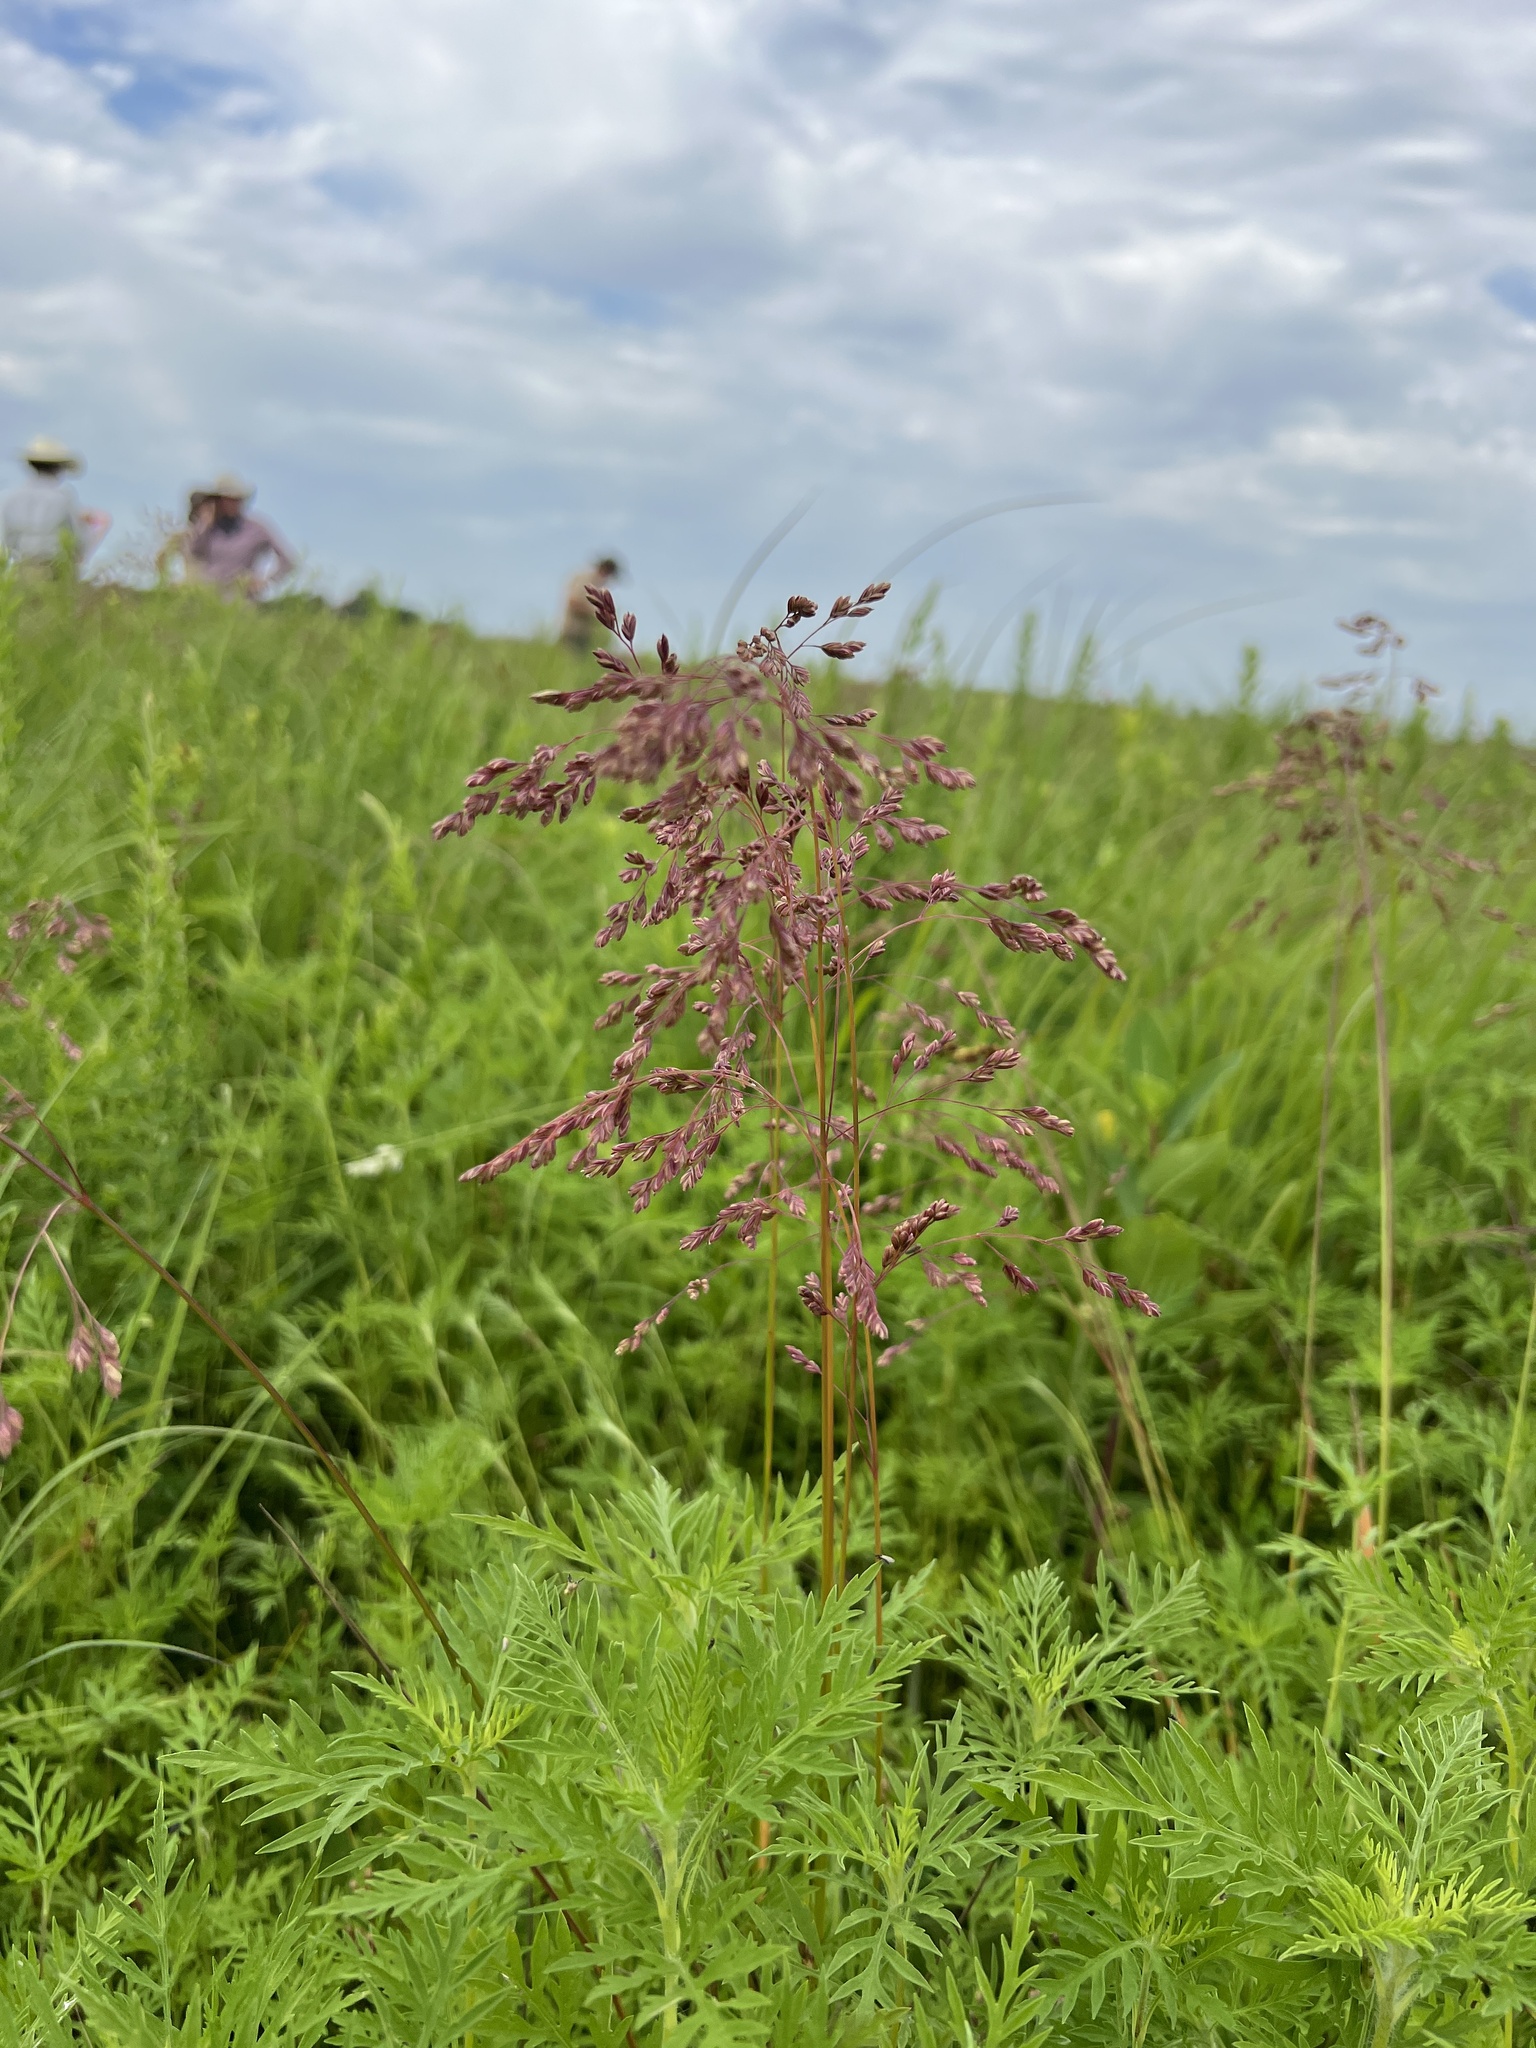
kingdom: Plantae
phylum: Tracheophyta
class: Liliopsida
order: Poales
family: Poaceae
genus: Festuca
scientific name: Festuca paradoxa
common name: Cluster fescue
